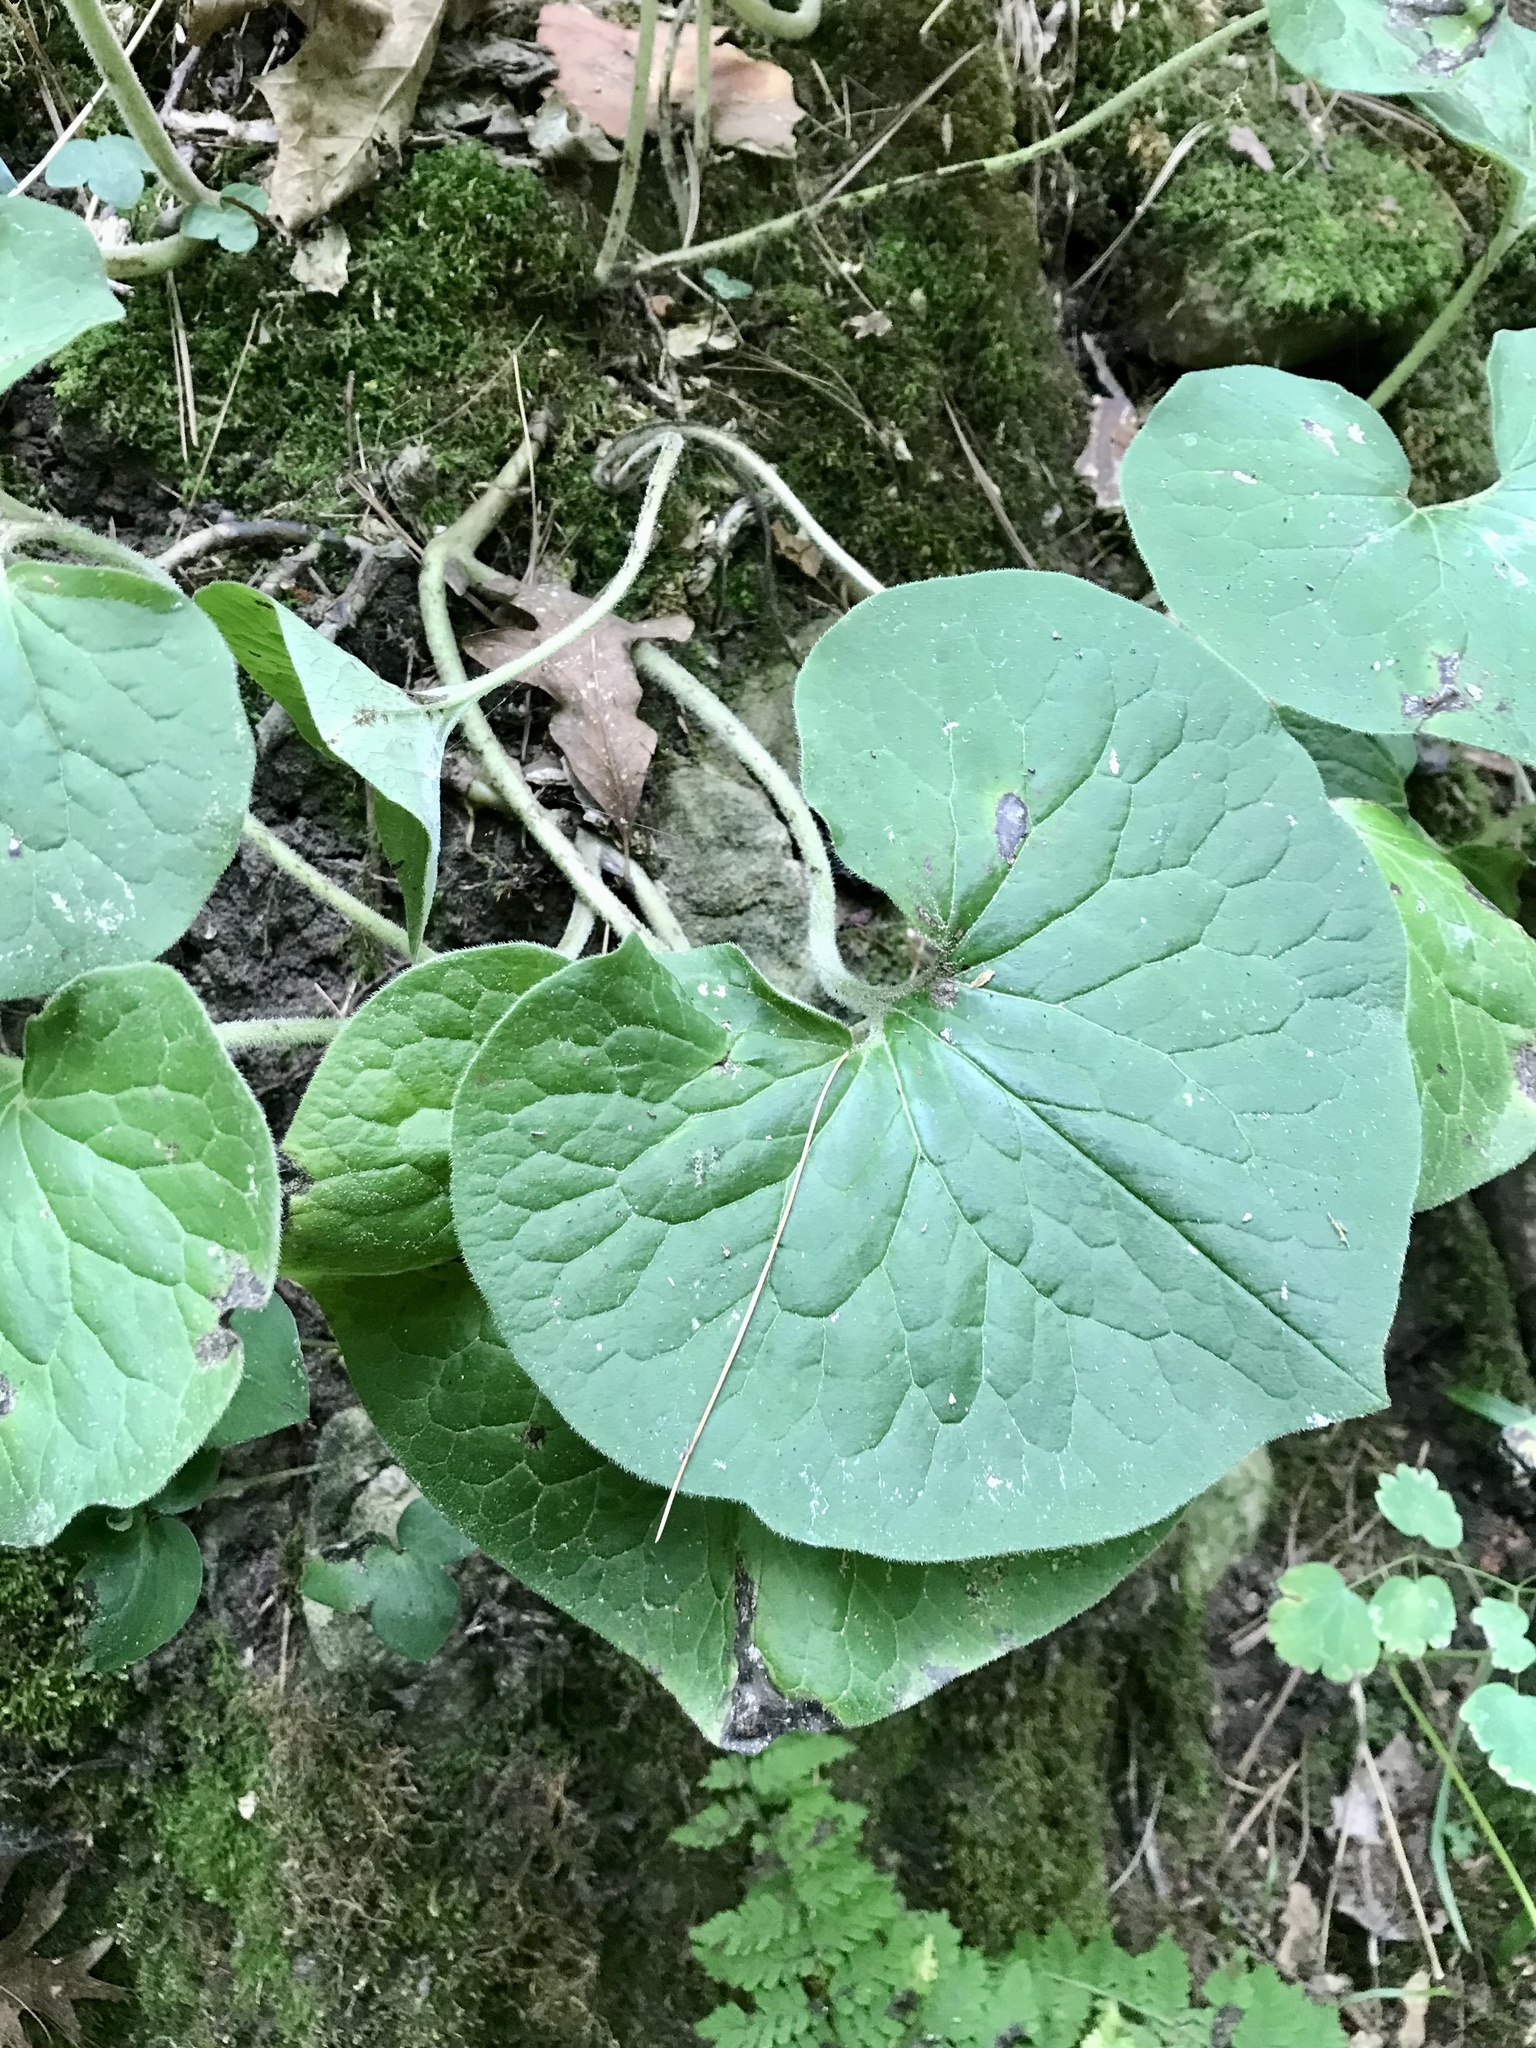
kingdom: Plantae
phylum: Tracheophyta
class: Magnoliopsida
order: Piperales
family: Aristolochiaceae
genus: Asarum
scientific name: Asarum canadense
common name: Wild ginger
